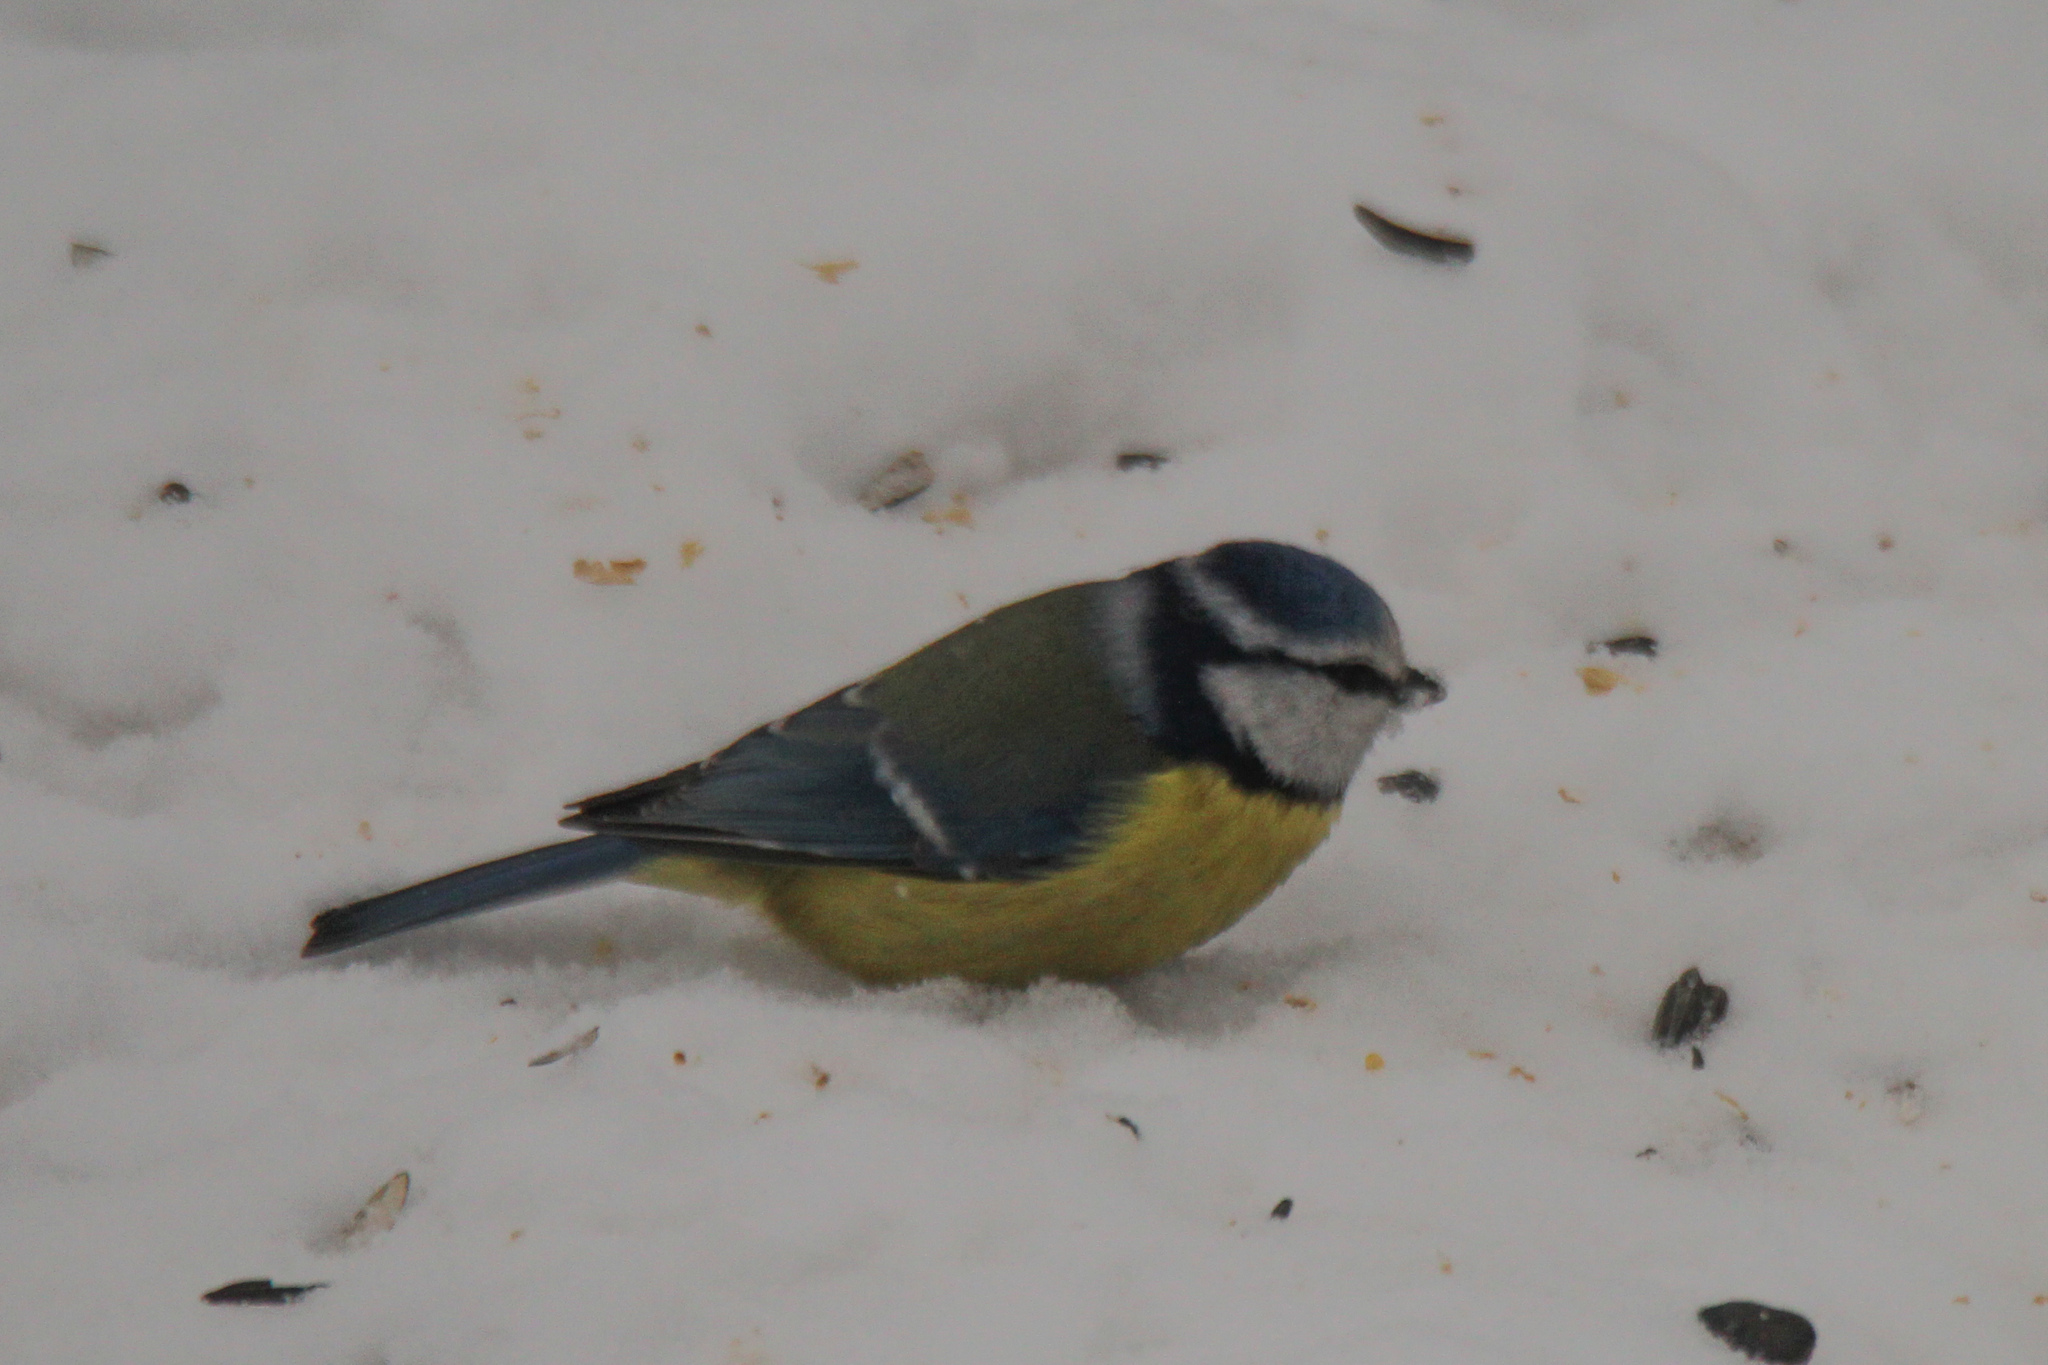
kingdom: Animalia
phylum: Chordata
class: Aves
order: Passeriformes
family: Paridae
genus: Cyanistes
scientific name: Cyanistes caeruleus
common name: Eurasian blue tit
